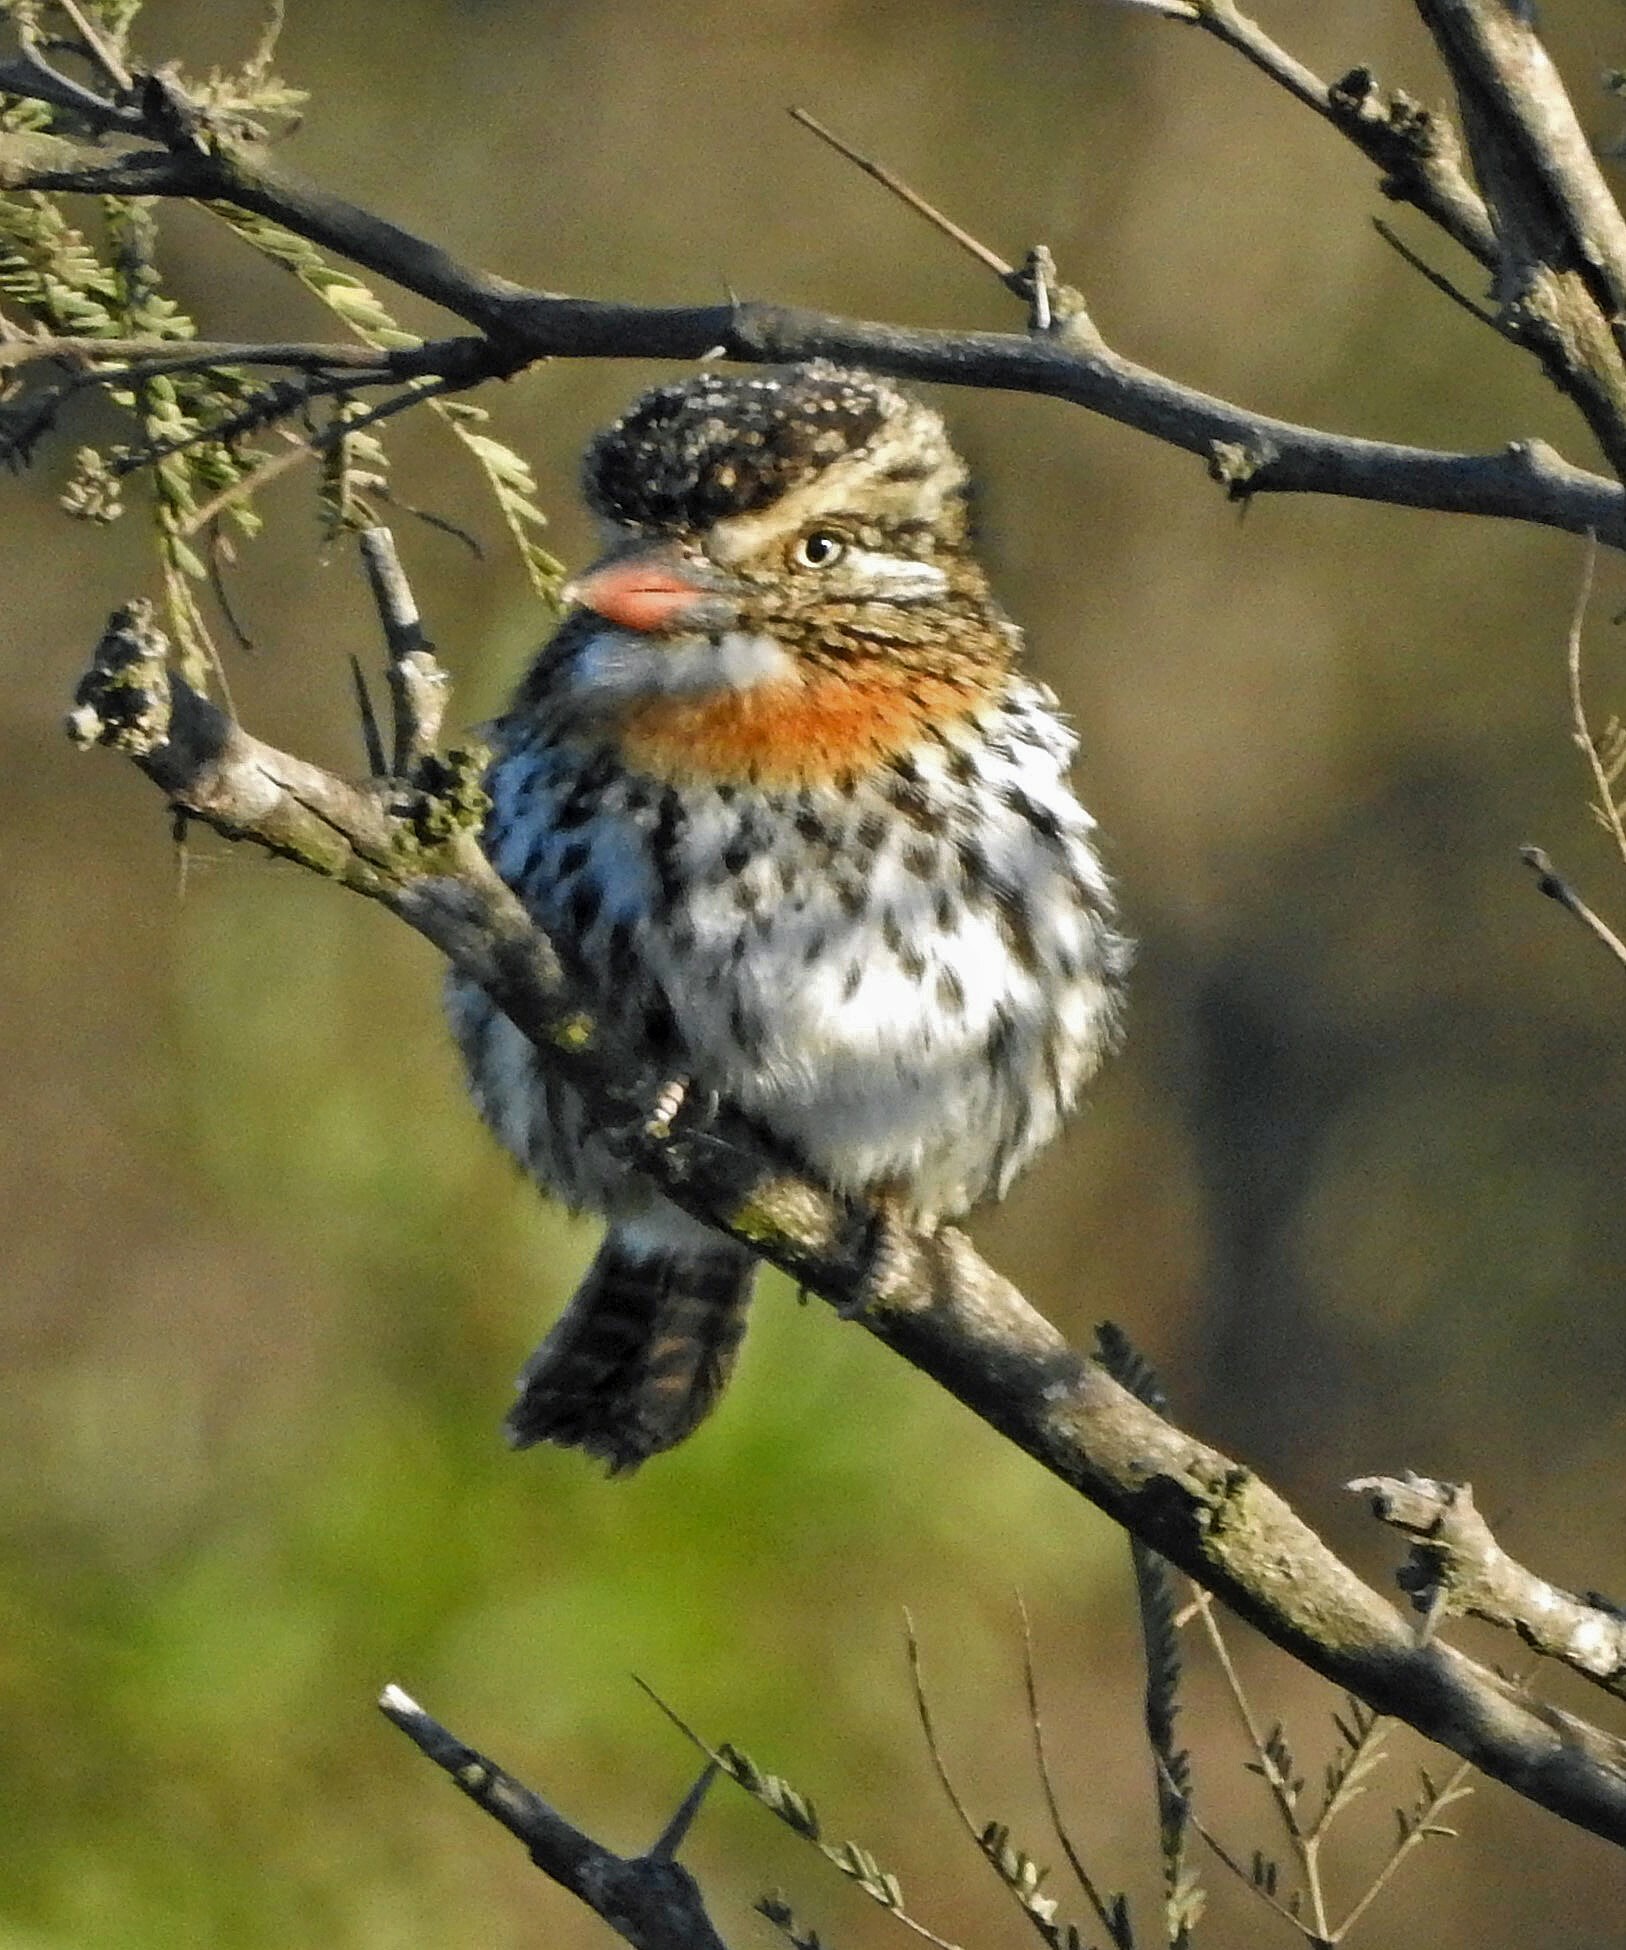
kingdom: Animalia
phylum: Chordata
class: Aves
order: Piciformes
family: Bucconidae
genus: Nystalus
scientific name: Nystalus maculatus
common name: Caatinga puffbird
